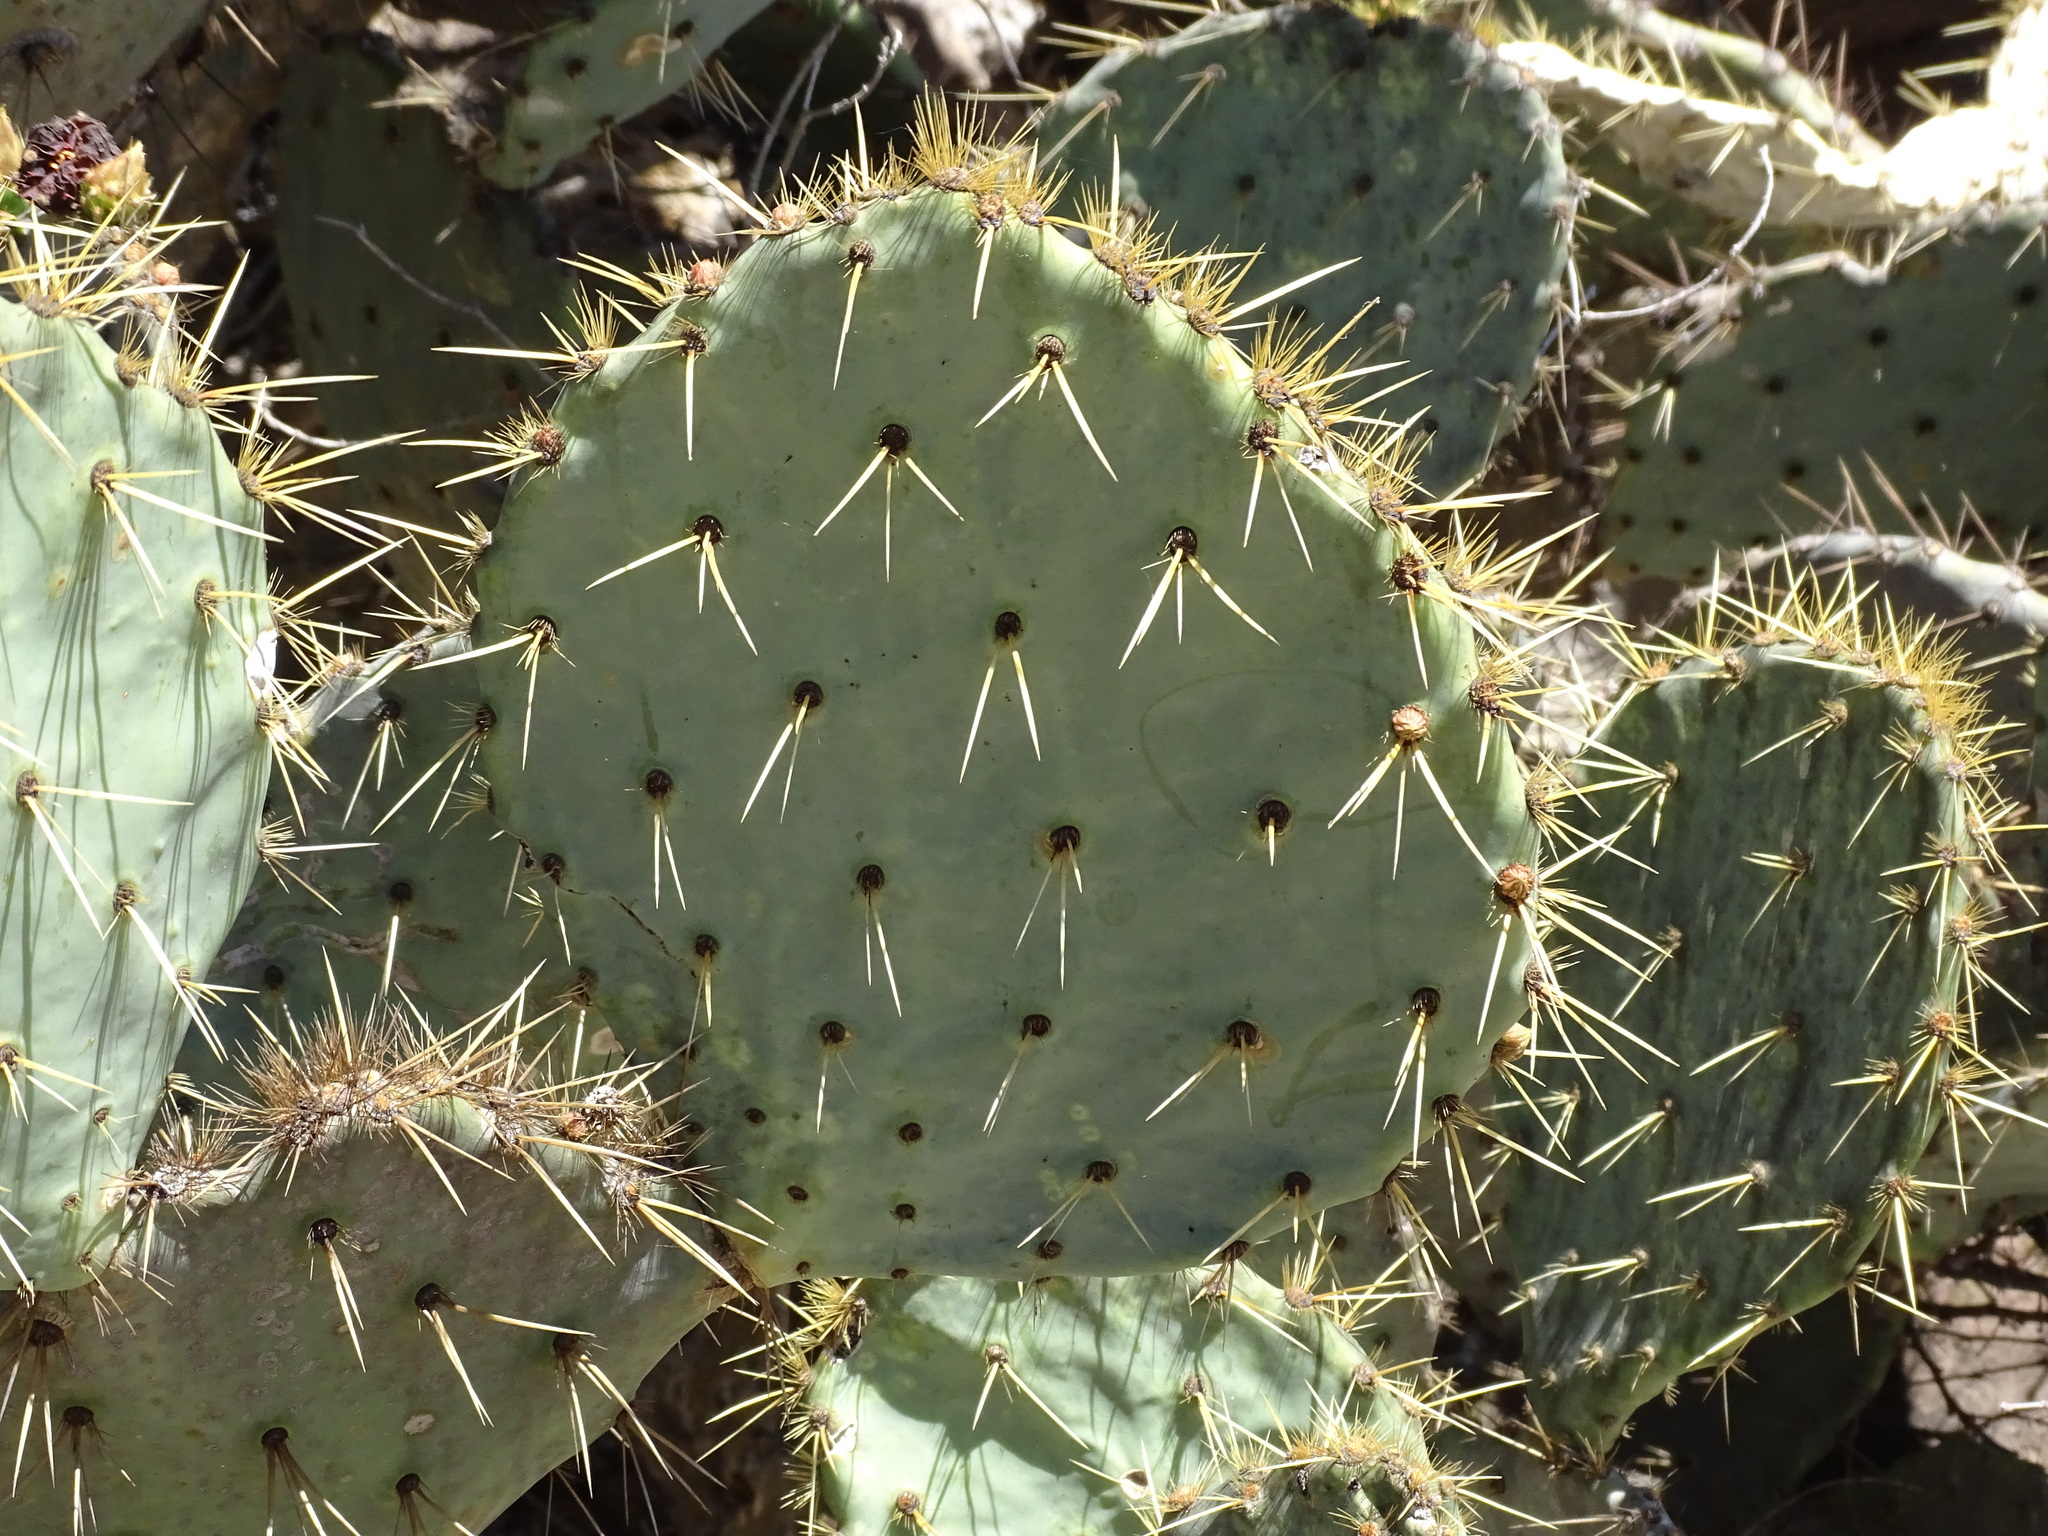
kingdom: Plantae
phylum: Tracheophyta
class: Magnoliopsida
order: Caryophyllales
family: Cactaceae
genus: Opuntia
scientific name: Opuntia robusta
